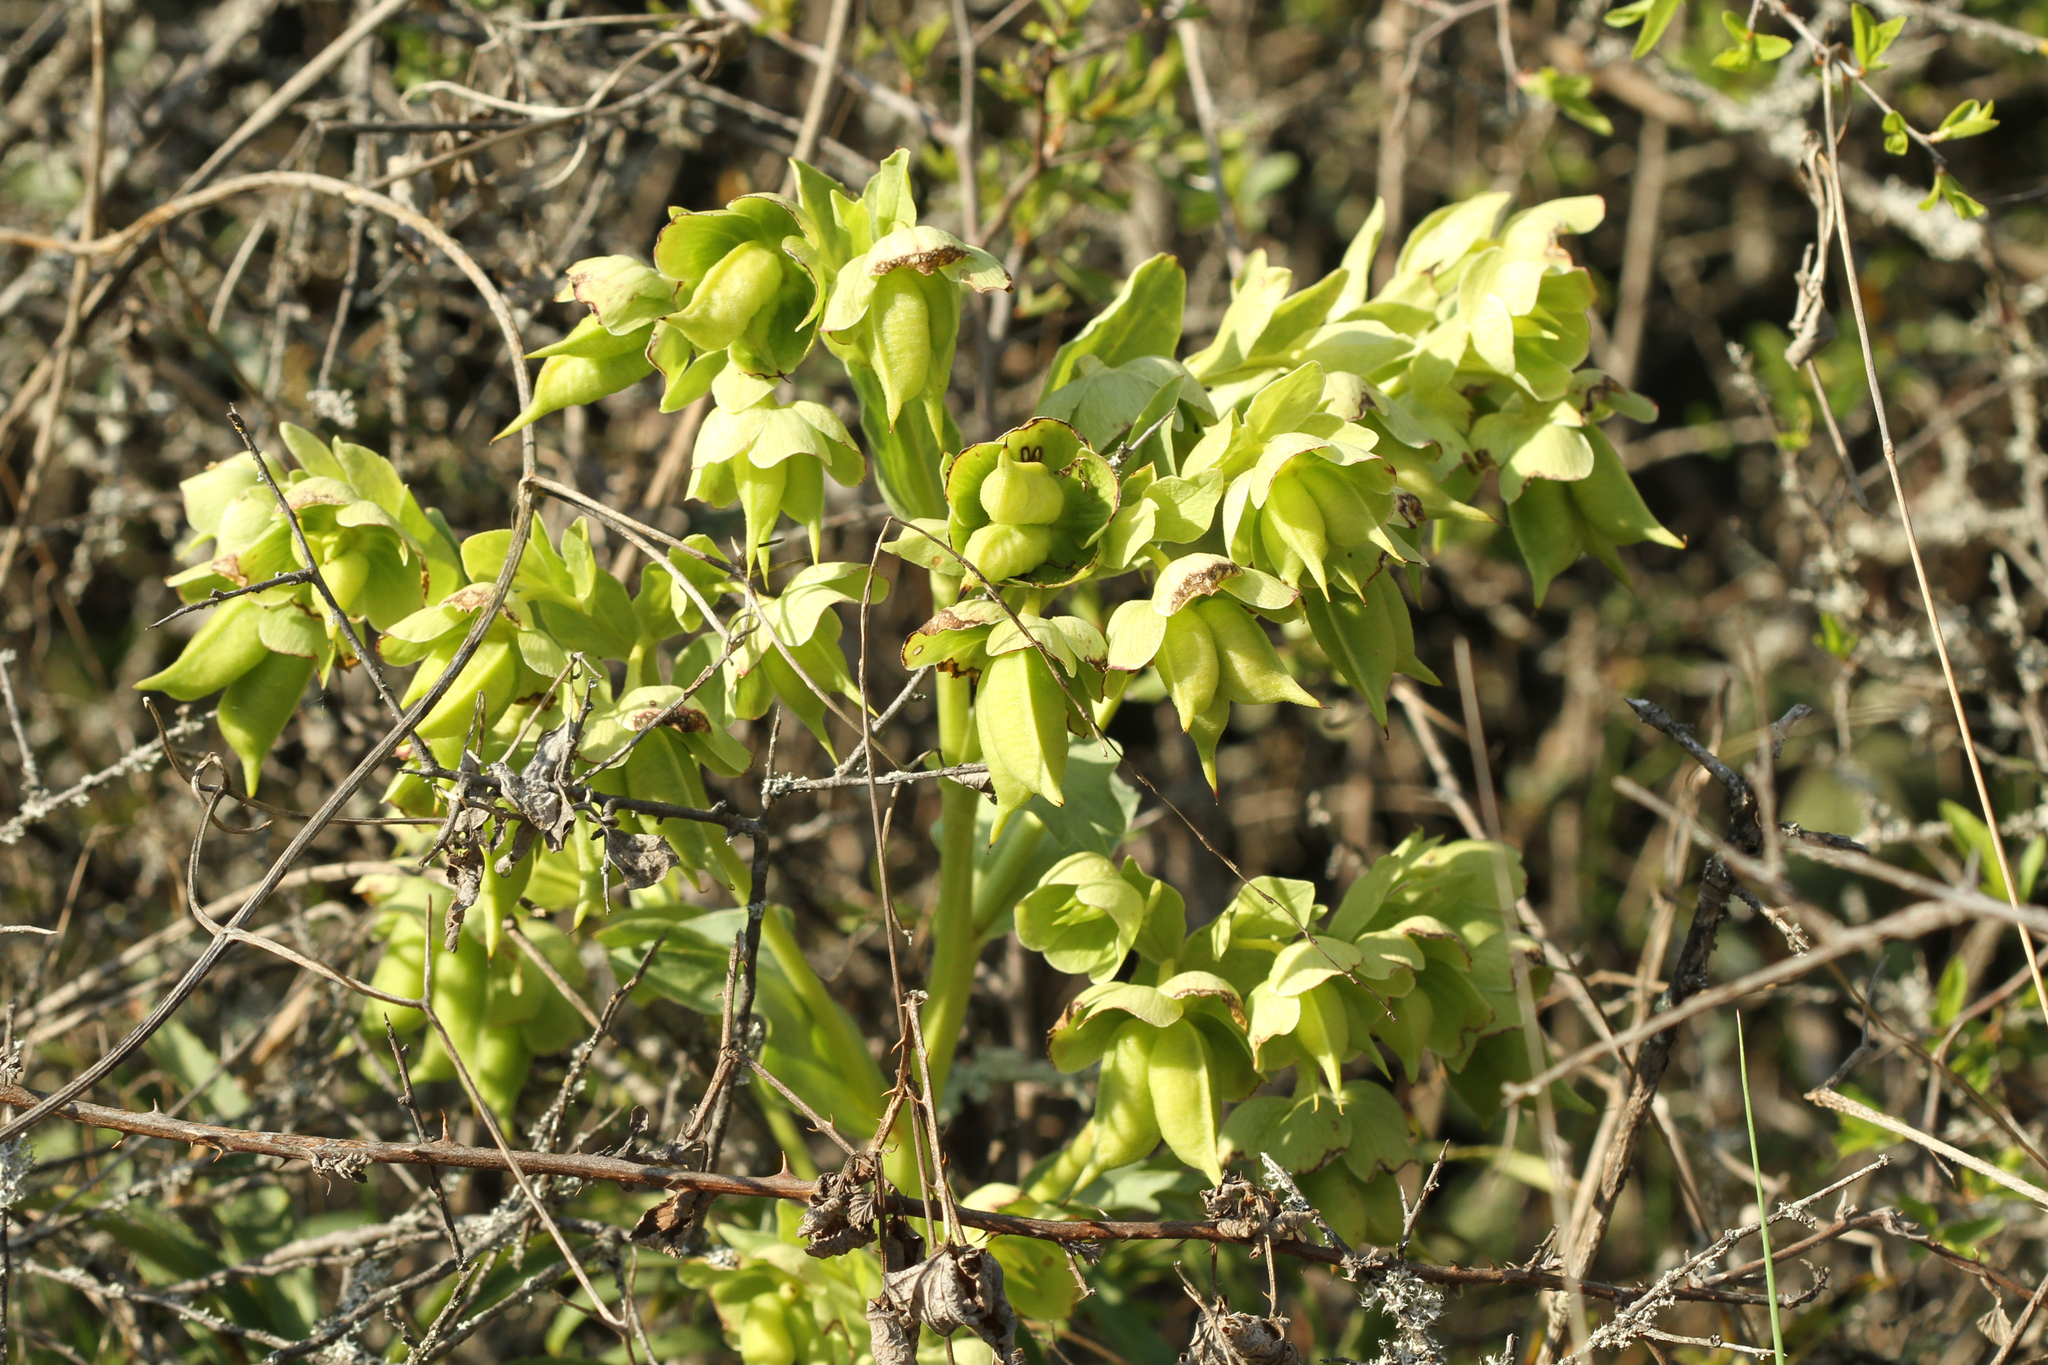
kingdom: Plantae
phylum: Tracheophyta
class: Magnoliopsida
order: Ranunculales
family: Ranunculaceae
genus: Helleborus
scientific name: Helleborus foetidus
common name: Stinking hellebore
